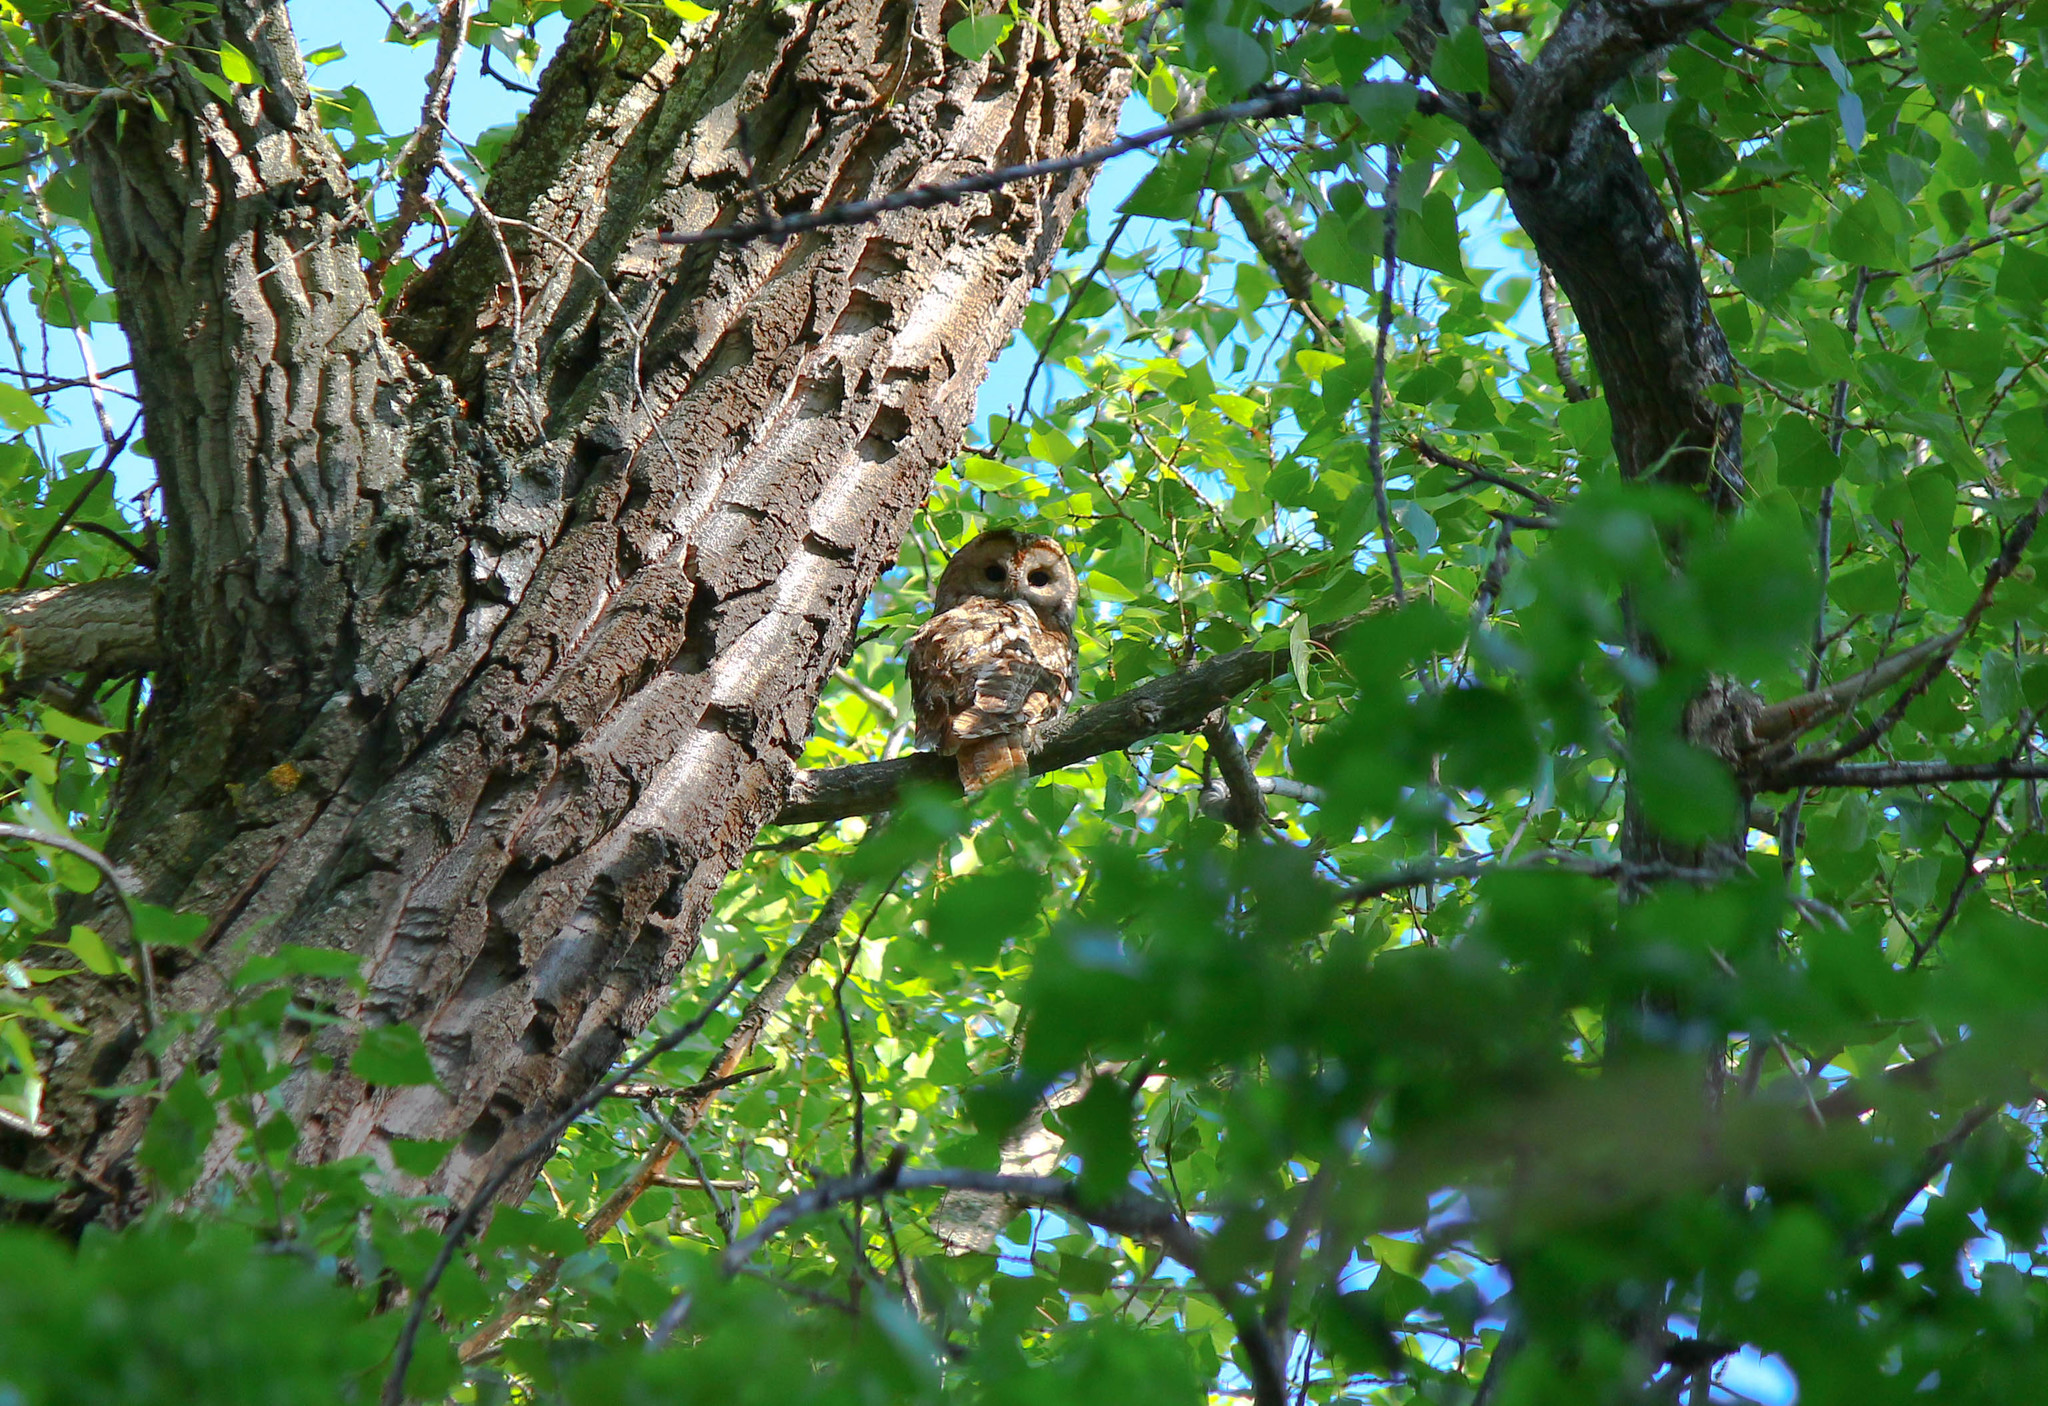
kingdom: Animalia
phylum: Chordata
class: Aves
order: Strigiformes
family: Strigidae
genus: Strix
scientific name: Strix aluco
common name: Tawny owl
